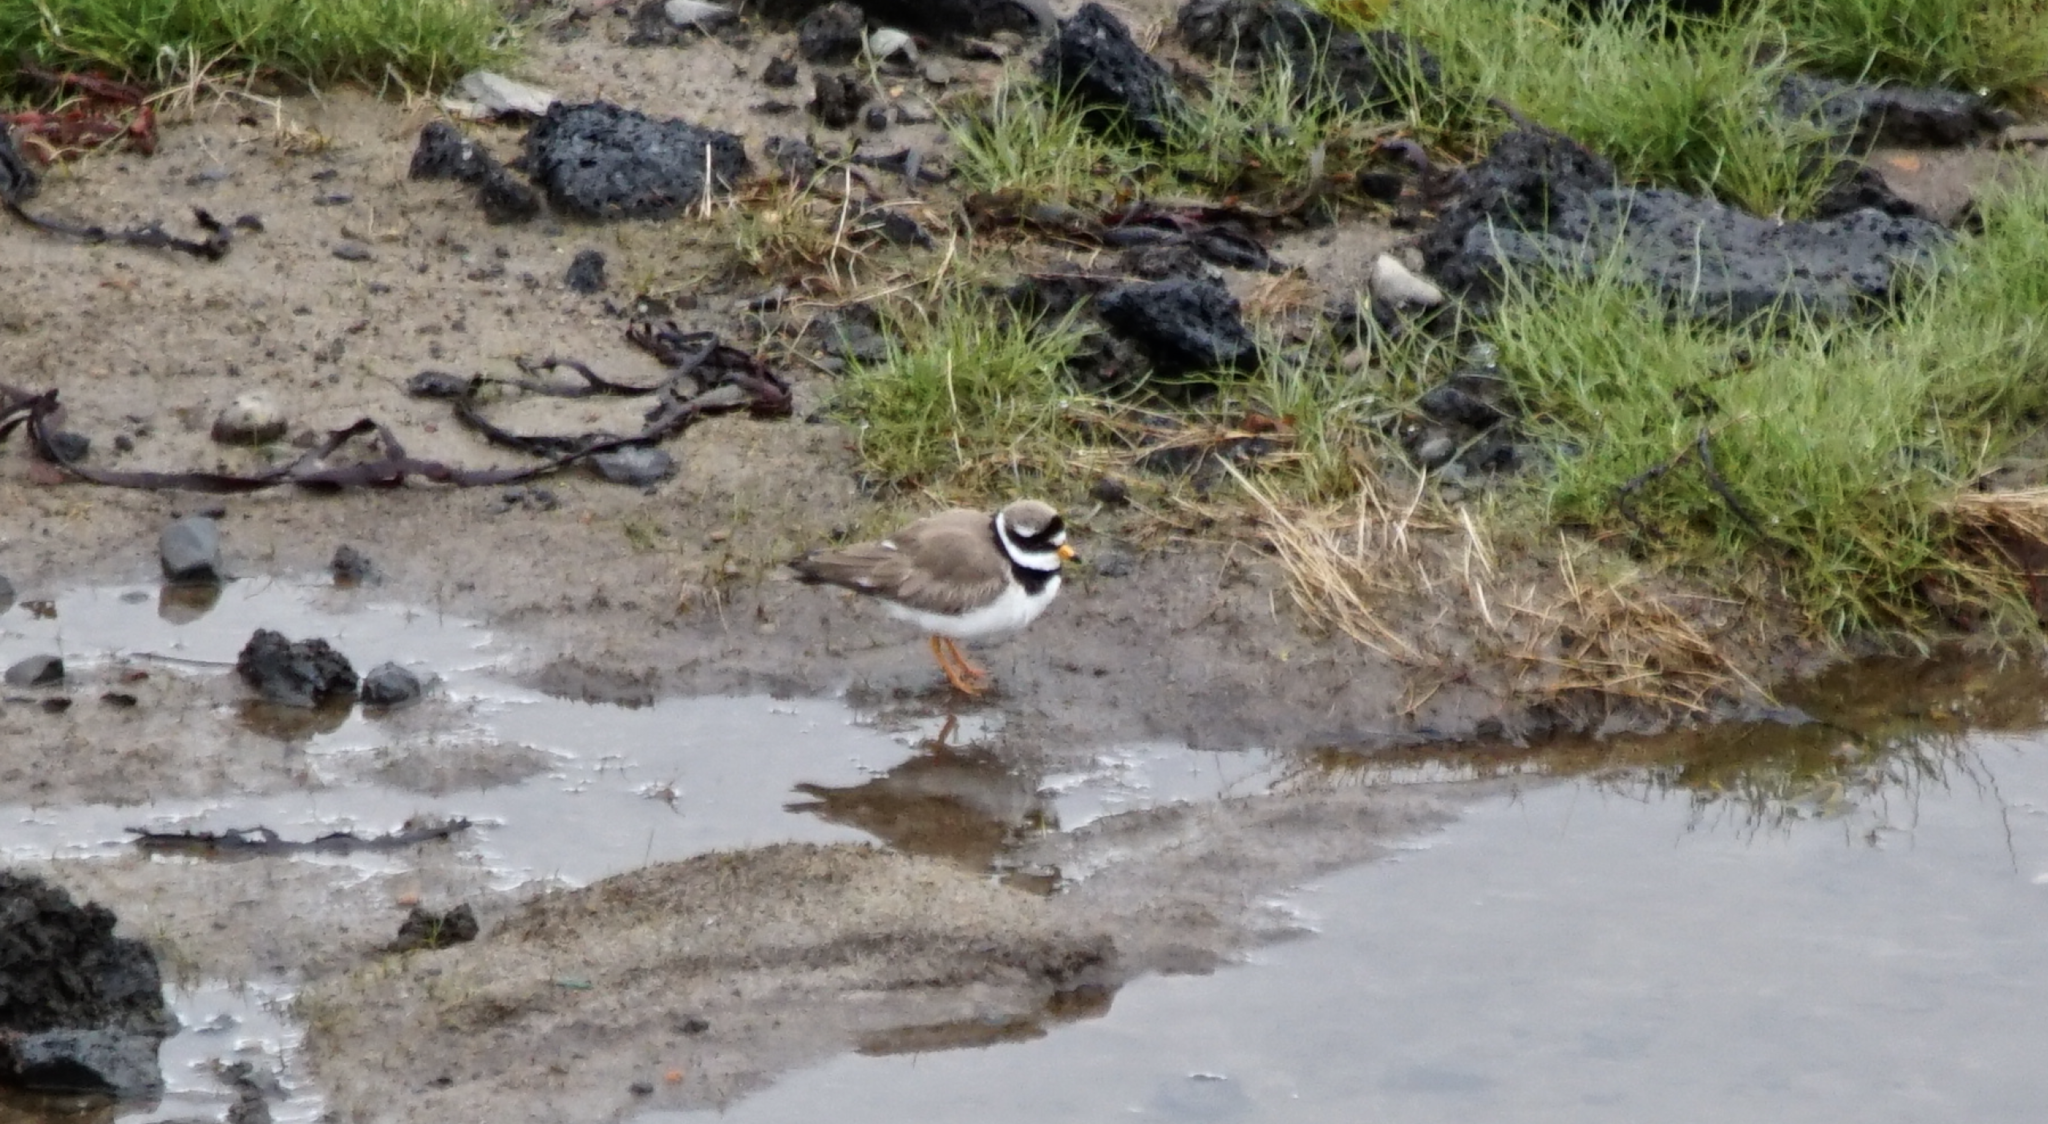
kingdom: Animalia
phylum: Chordata
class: Aves
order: Charadriiformes
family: Charadriidae
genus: Charadrius
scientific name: Charadrius hiaticula
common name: Common ringed plover
